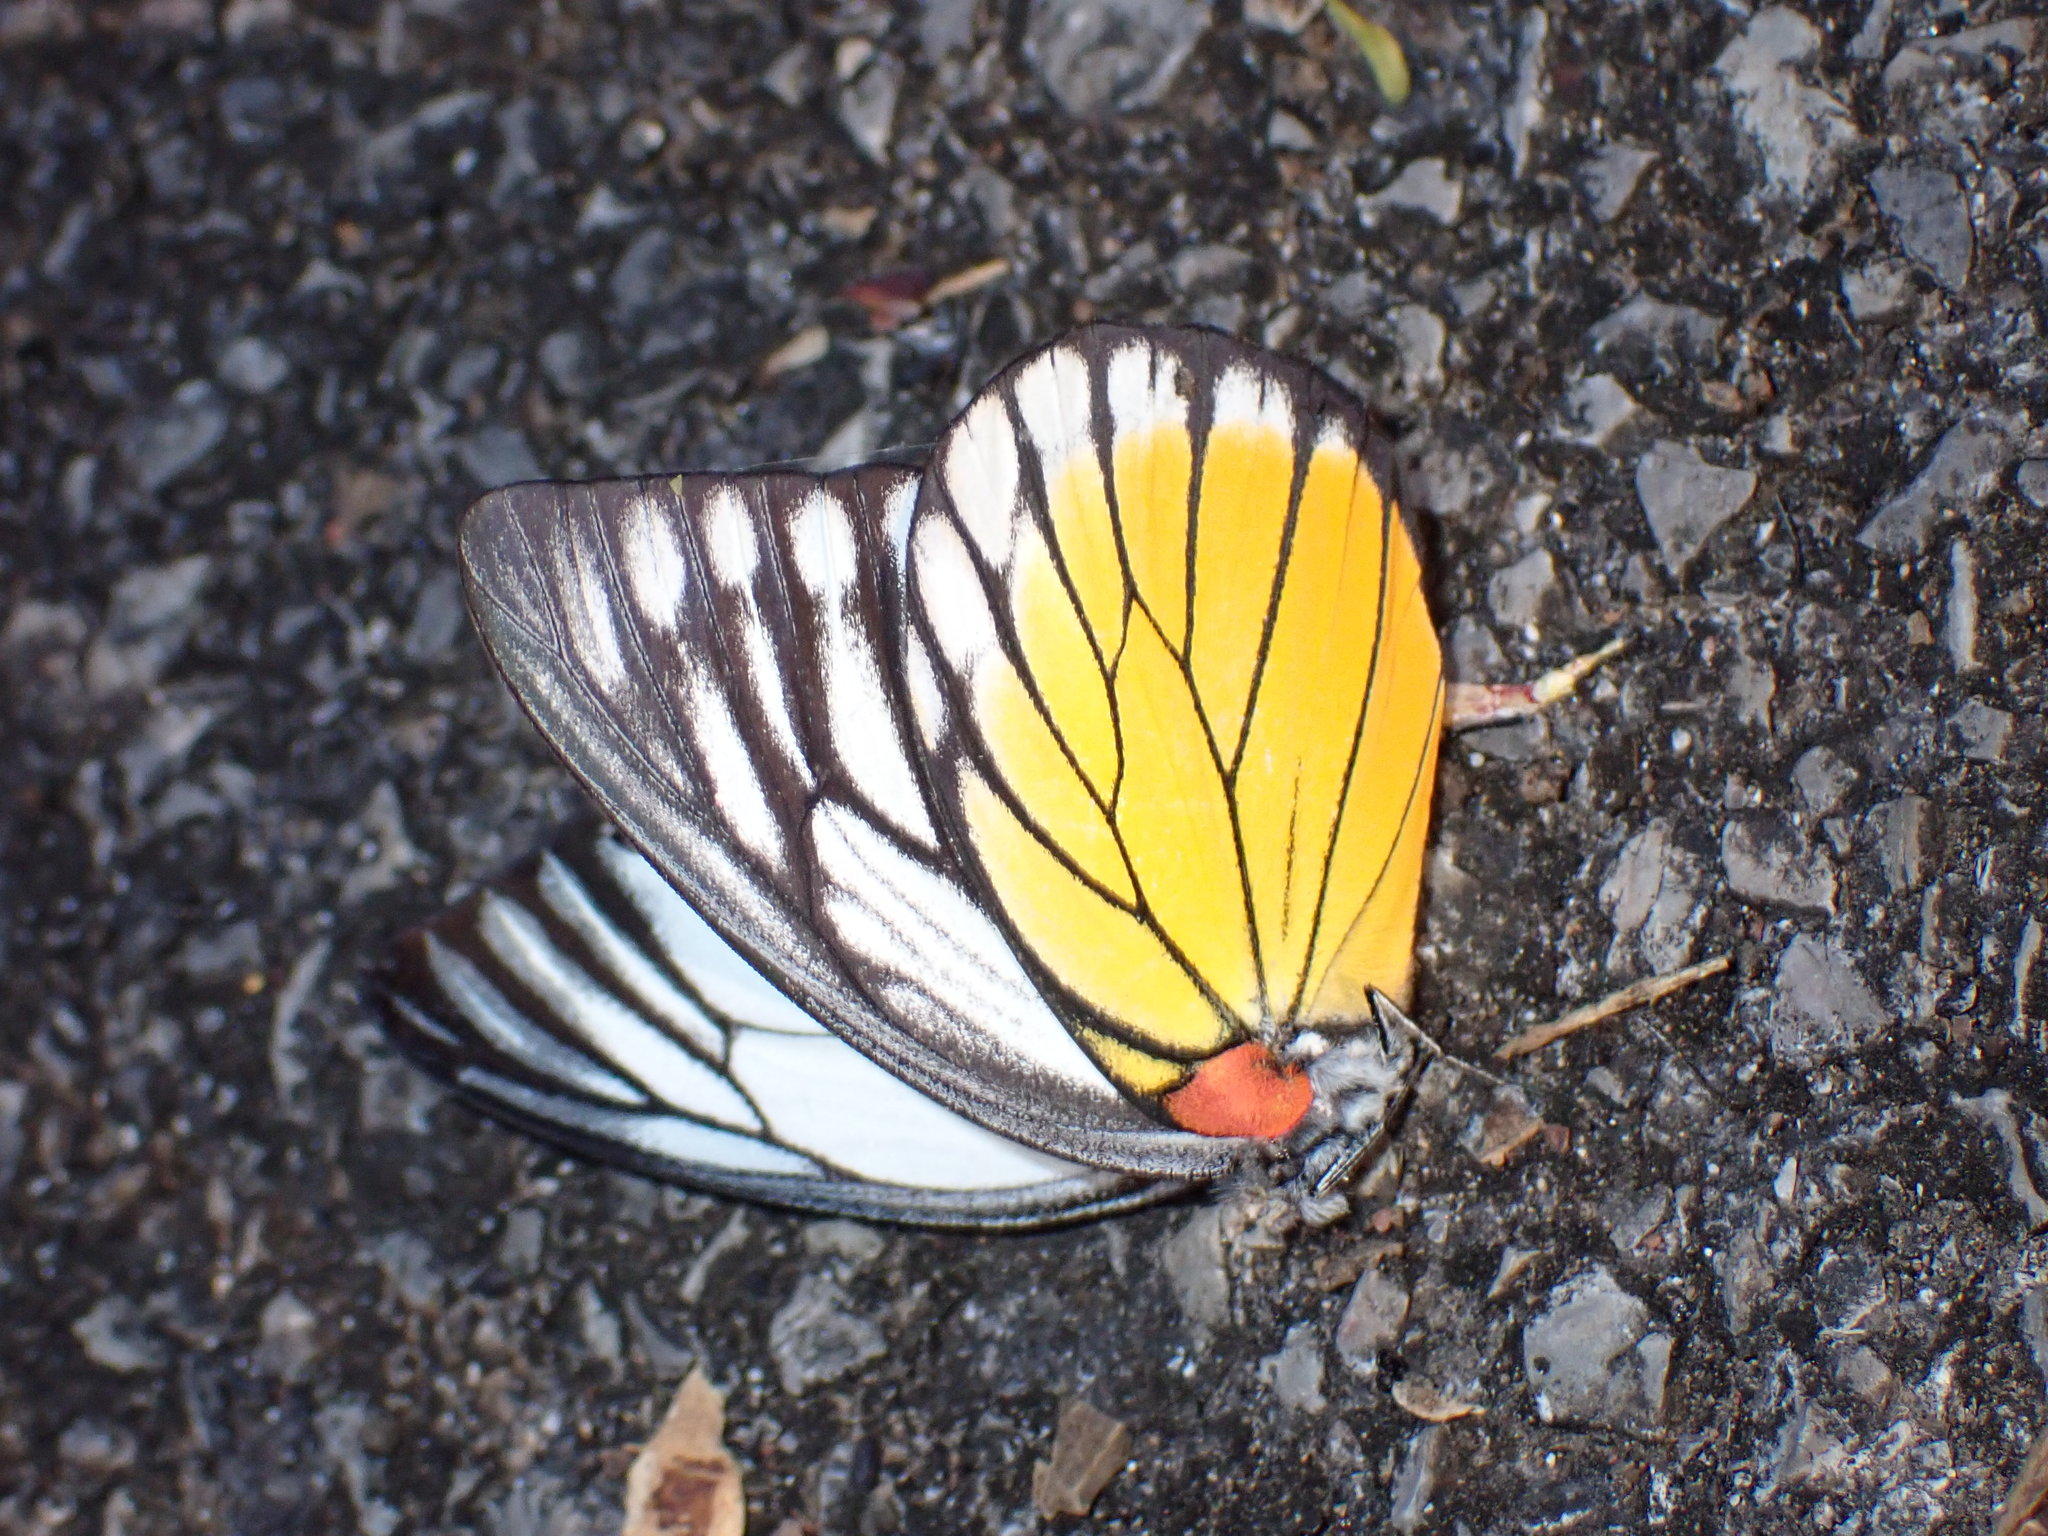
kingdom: Animalia
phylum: Arthropoda
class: Insecta
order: Lepidoptera
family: Pieridae
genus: Prioneris
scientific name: Prioneris philonome
